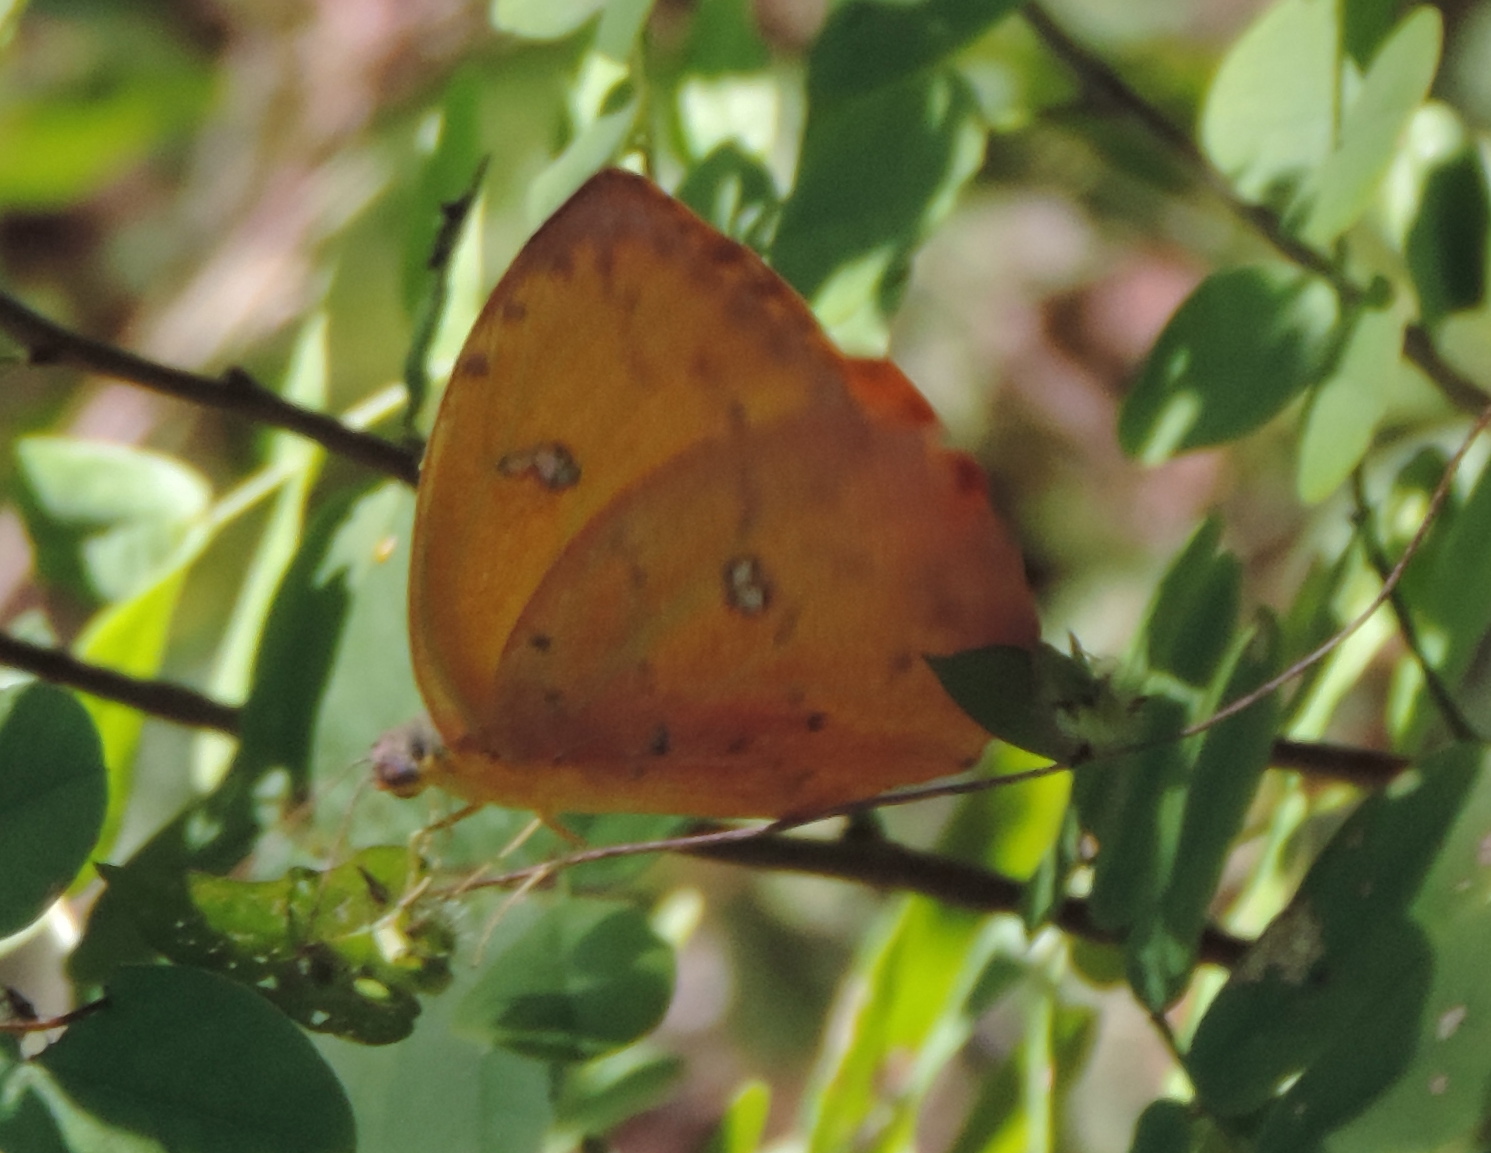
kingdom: Animalia
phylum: Arthropoda
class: Insecta
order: Lepidoptera
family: Pieridae
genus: Phoebis
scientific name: Phoebis philea
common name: Orange-barred giant sulphur
